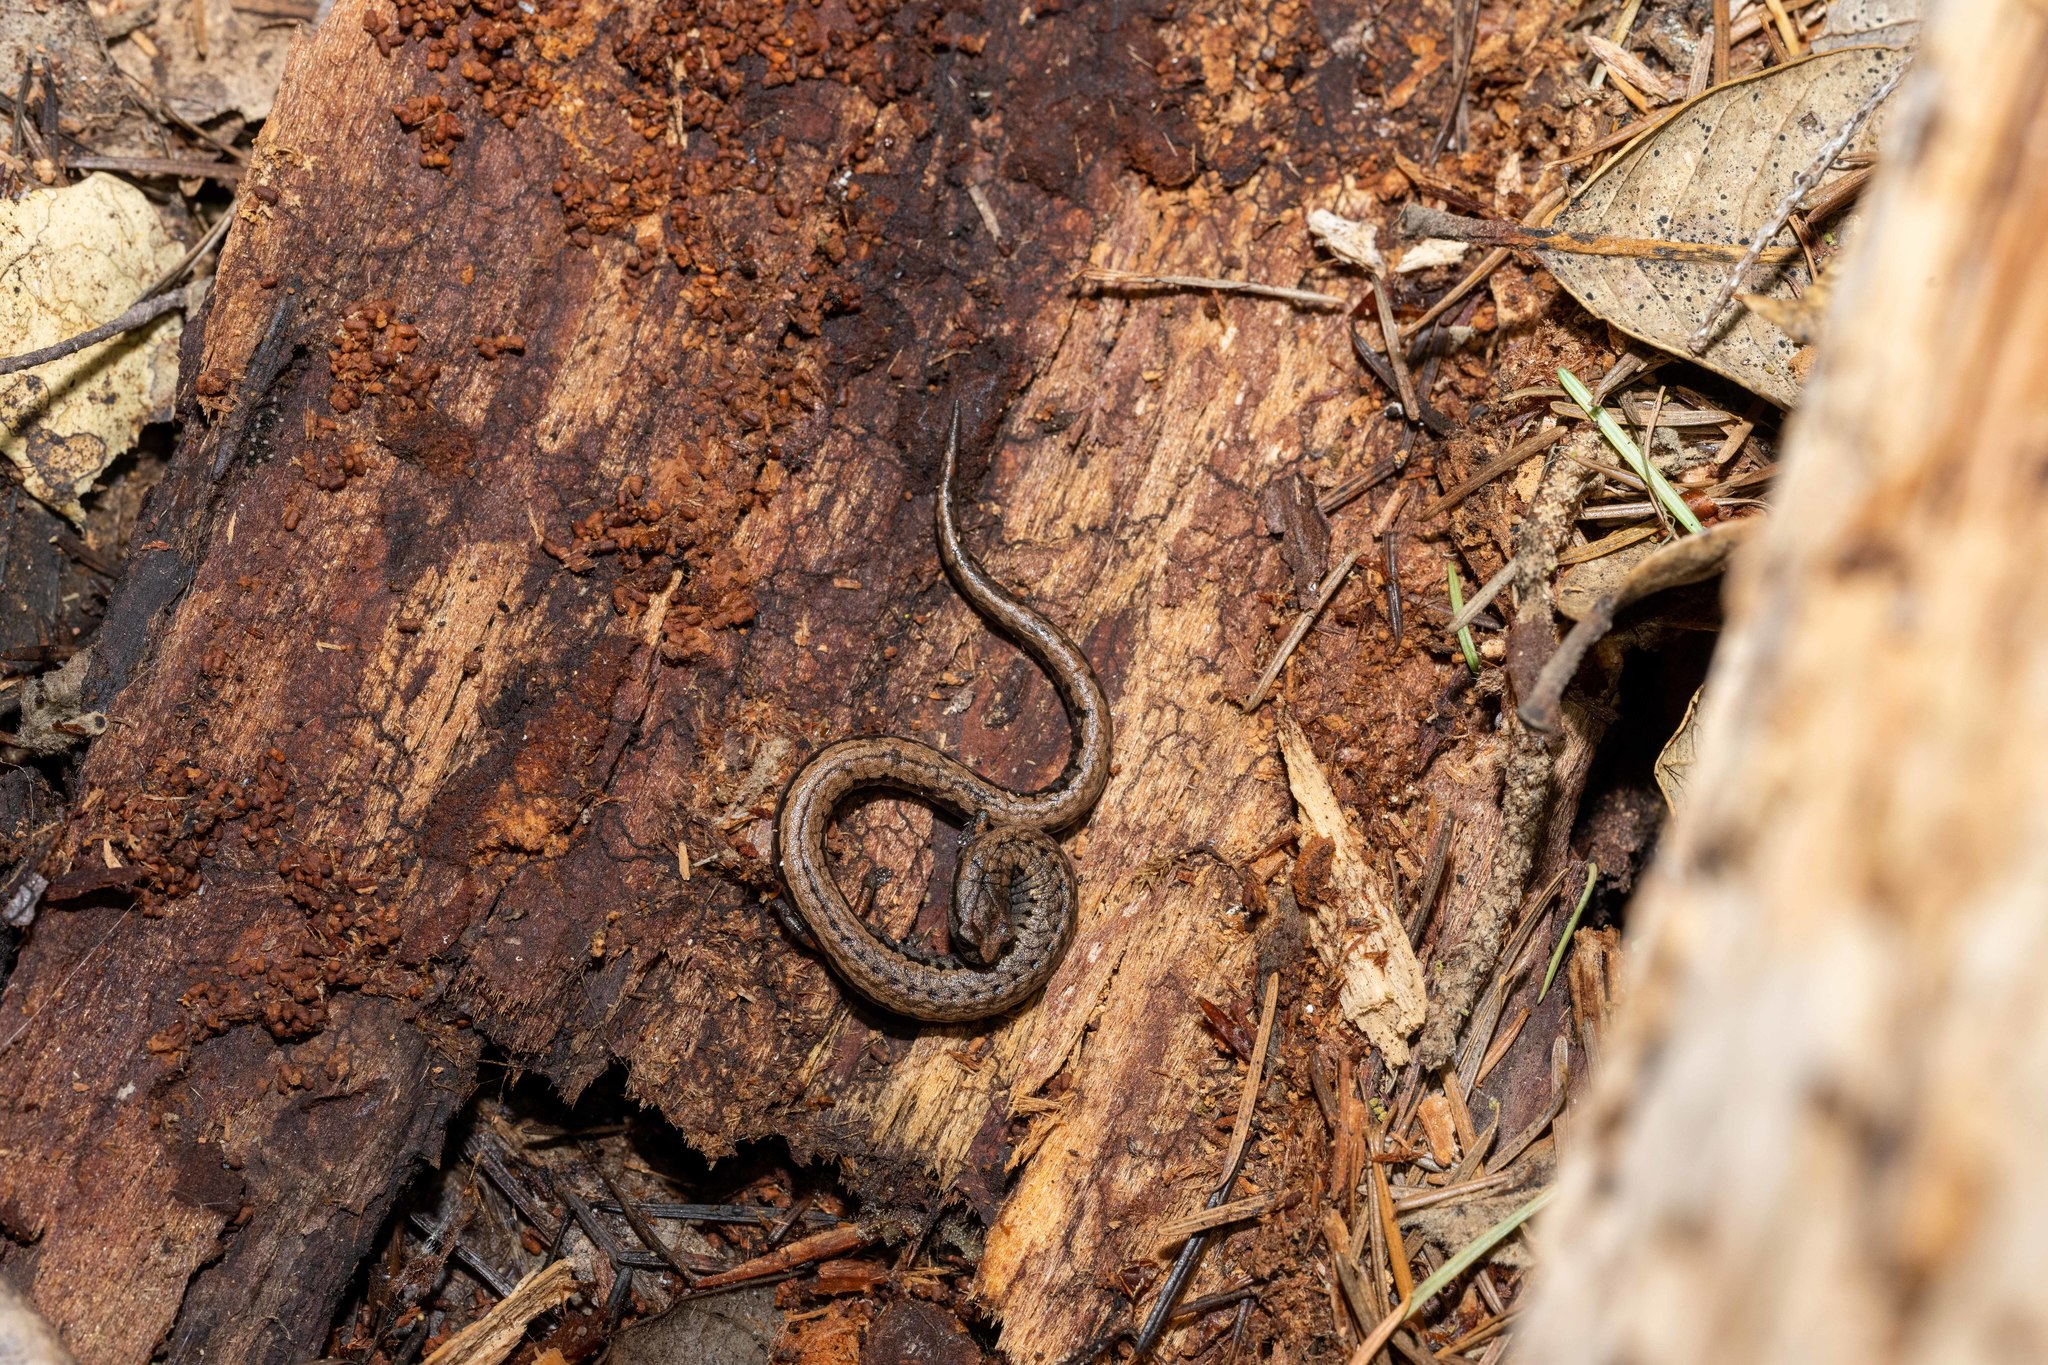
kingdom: Animalia
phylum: Chordata
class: Amphibia
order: Caudata
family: Plethodontidae
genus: Batrachoseps
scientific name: Batrachoseps attenuatus
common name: California slender salamander
